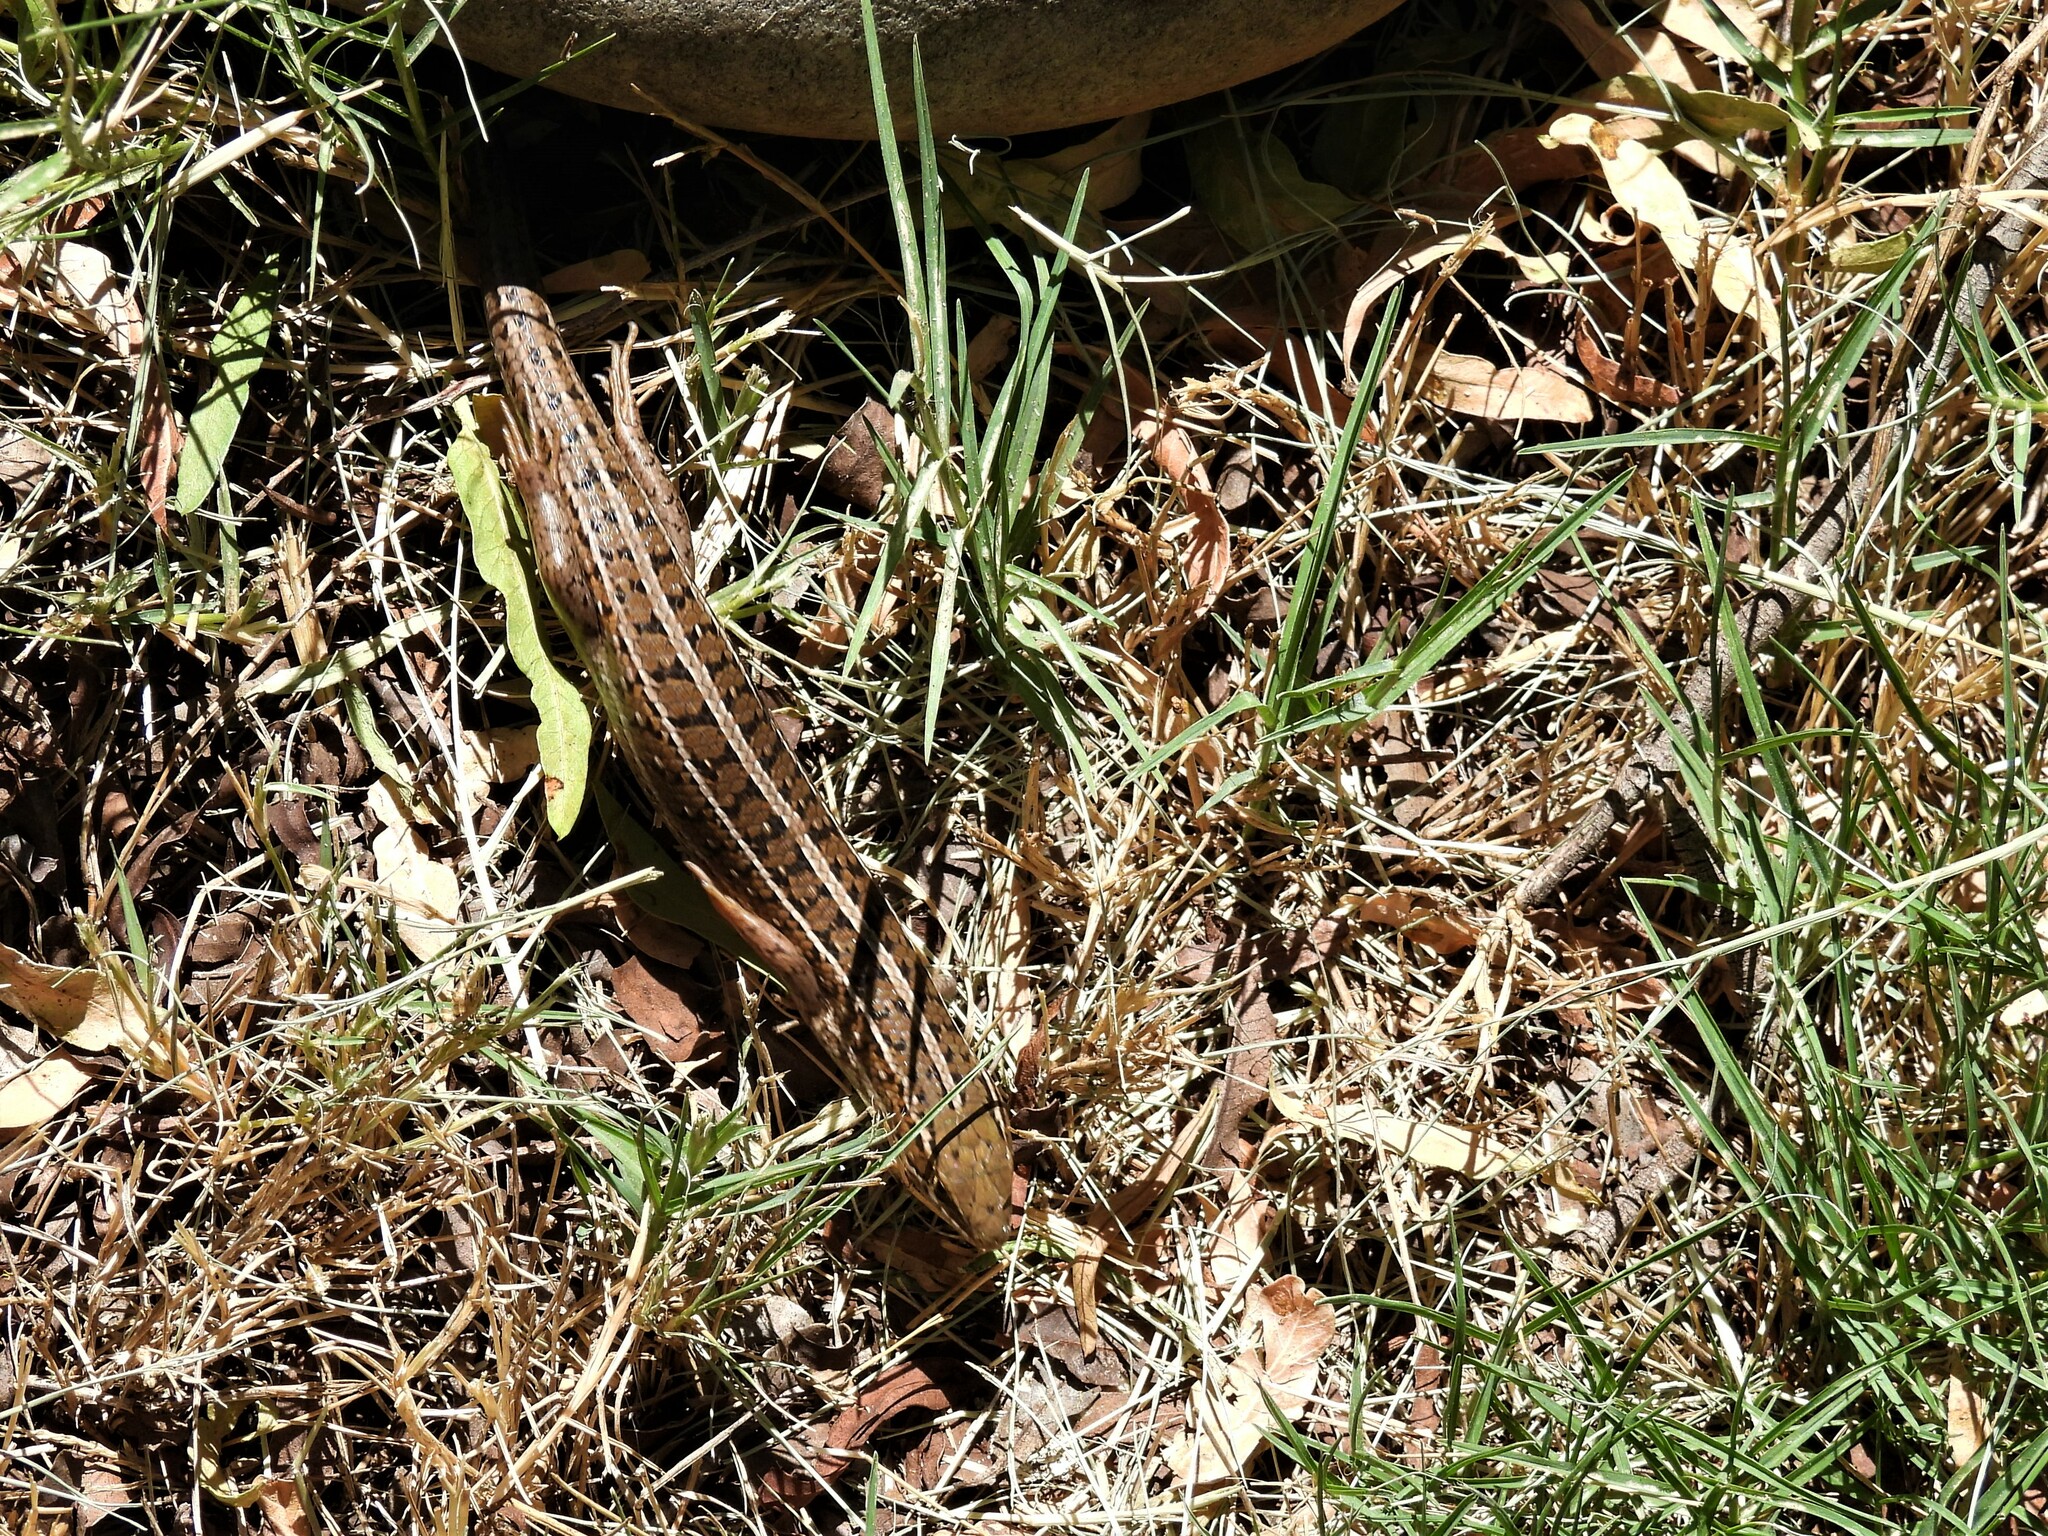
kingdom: Animalia
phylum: Chordata
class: Squamata
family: Scincidae
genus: Trachylepis
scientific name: Trachylepis capensis
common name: Cape skink
